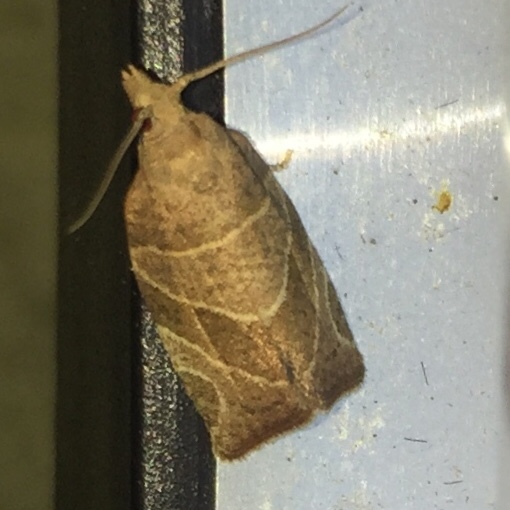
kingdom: Animalia
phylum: Arthropoda
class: Insecta
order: Lepidoptera
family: Tortricidae
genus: Pandemis
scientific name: Pandemis limitata
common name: Three-lined leafroller moth
